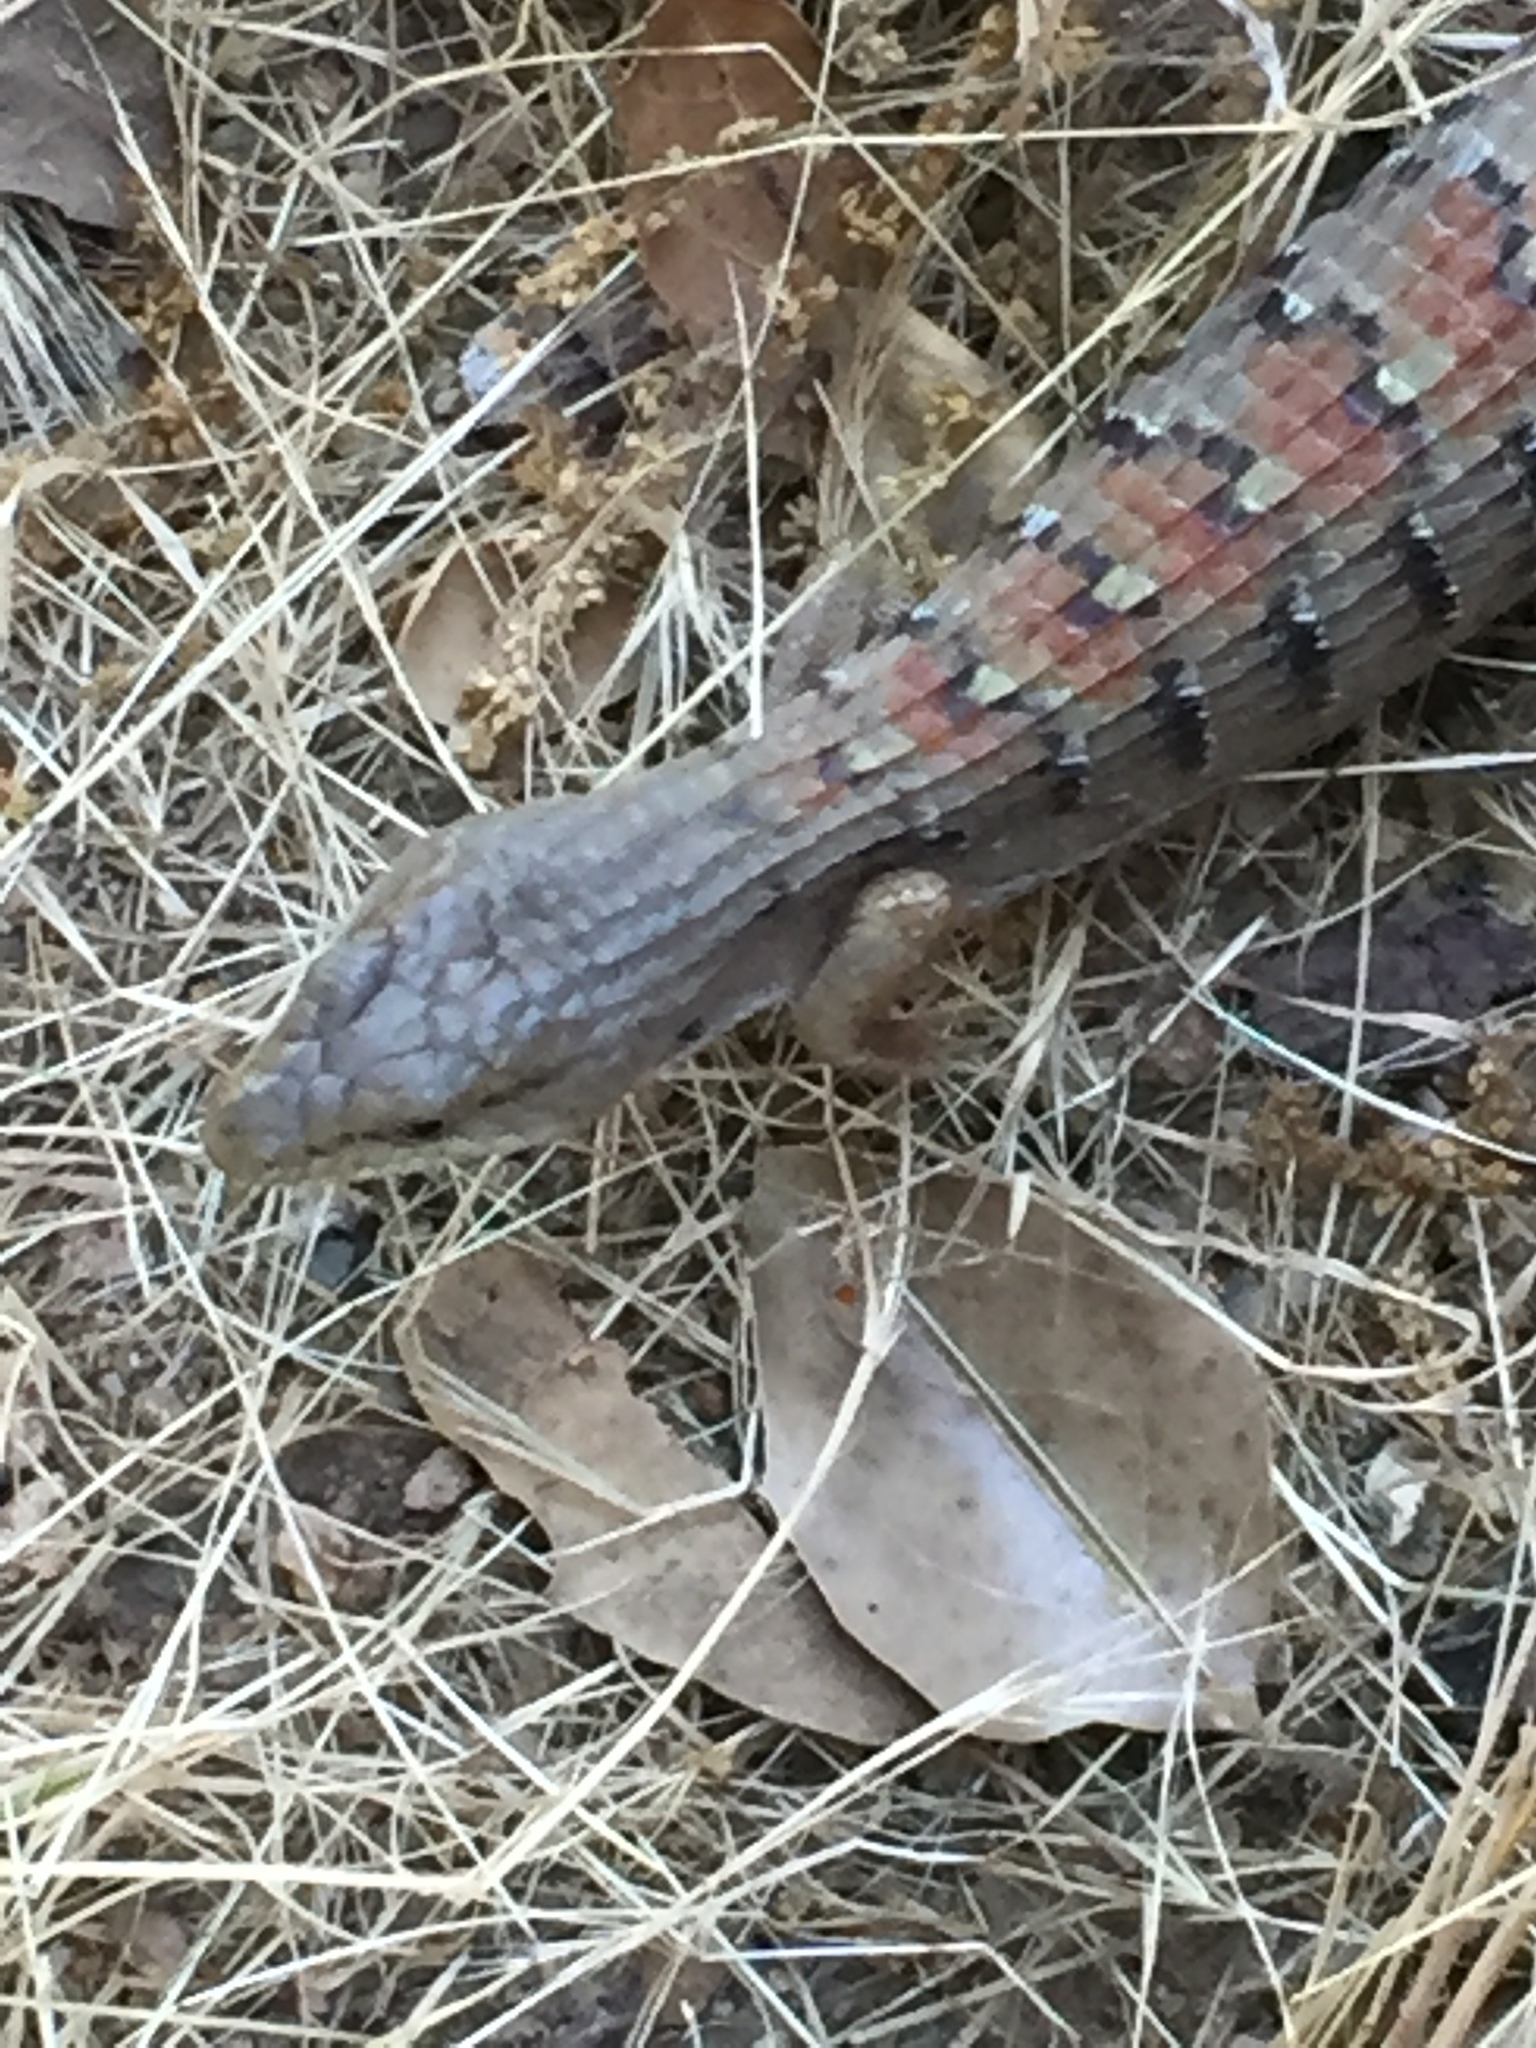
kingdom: Animalia
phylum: Chordata
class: Squamata
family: Anguidae
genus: Elgaria
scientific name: Elgaria multicarinata
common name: Southern alligator lizard
